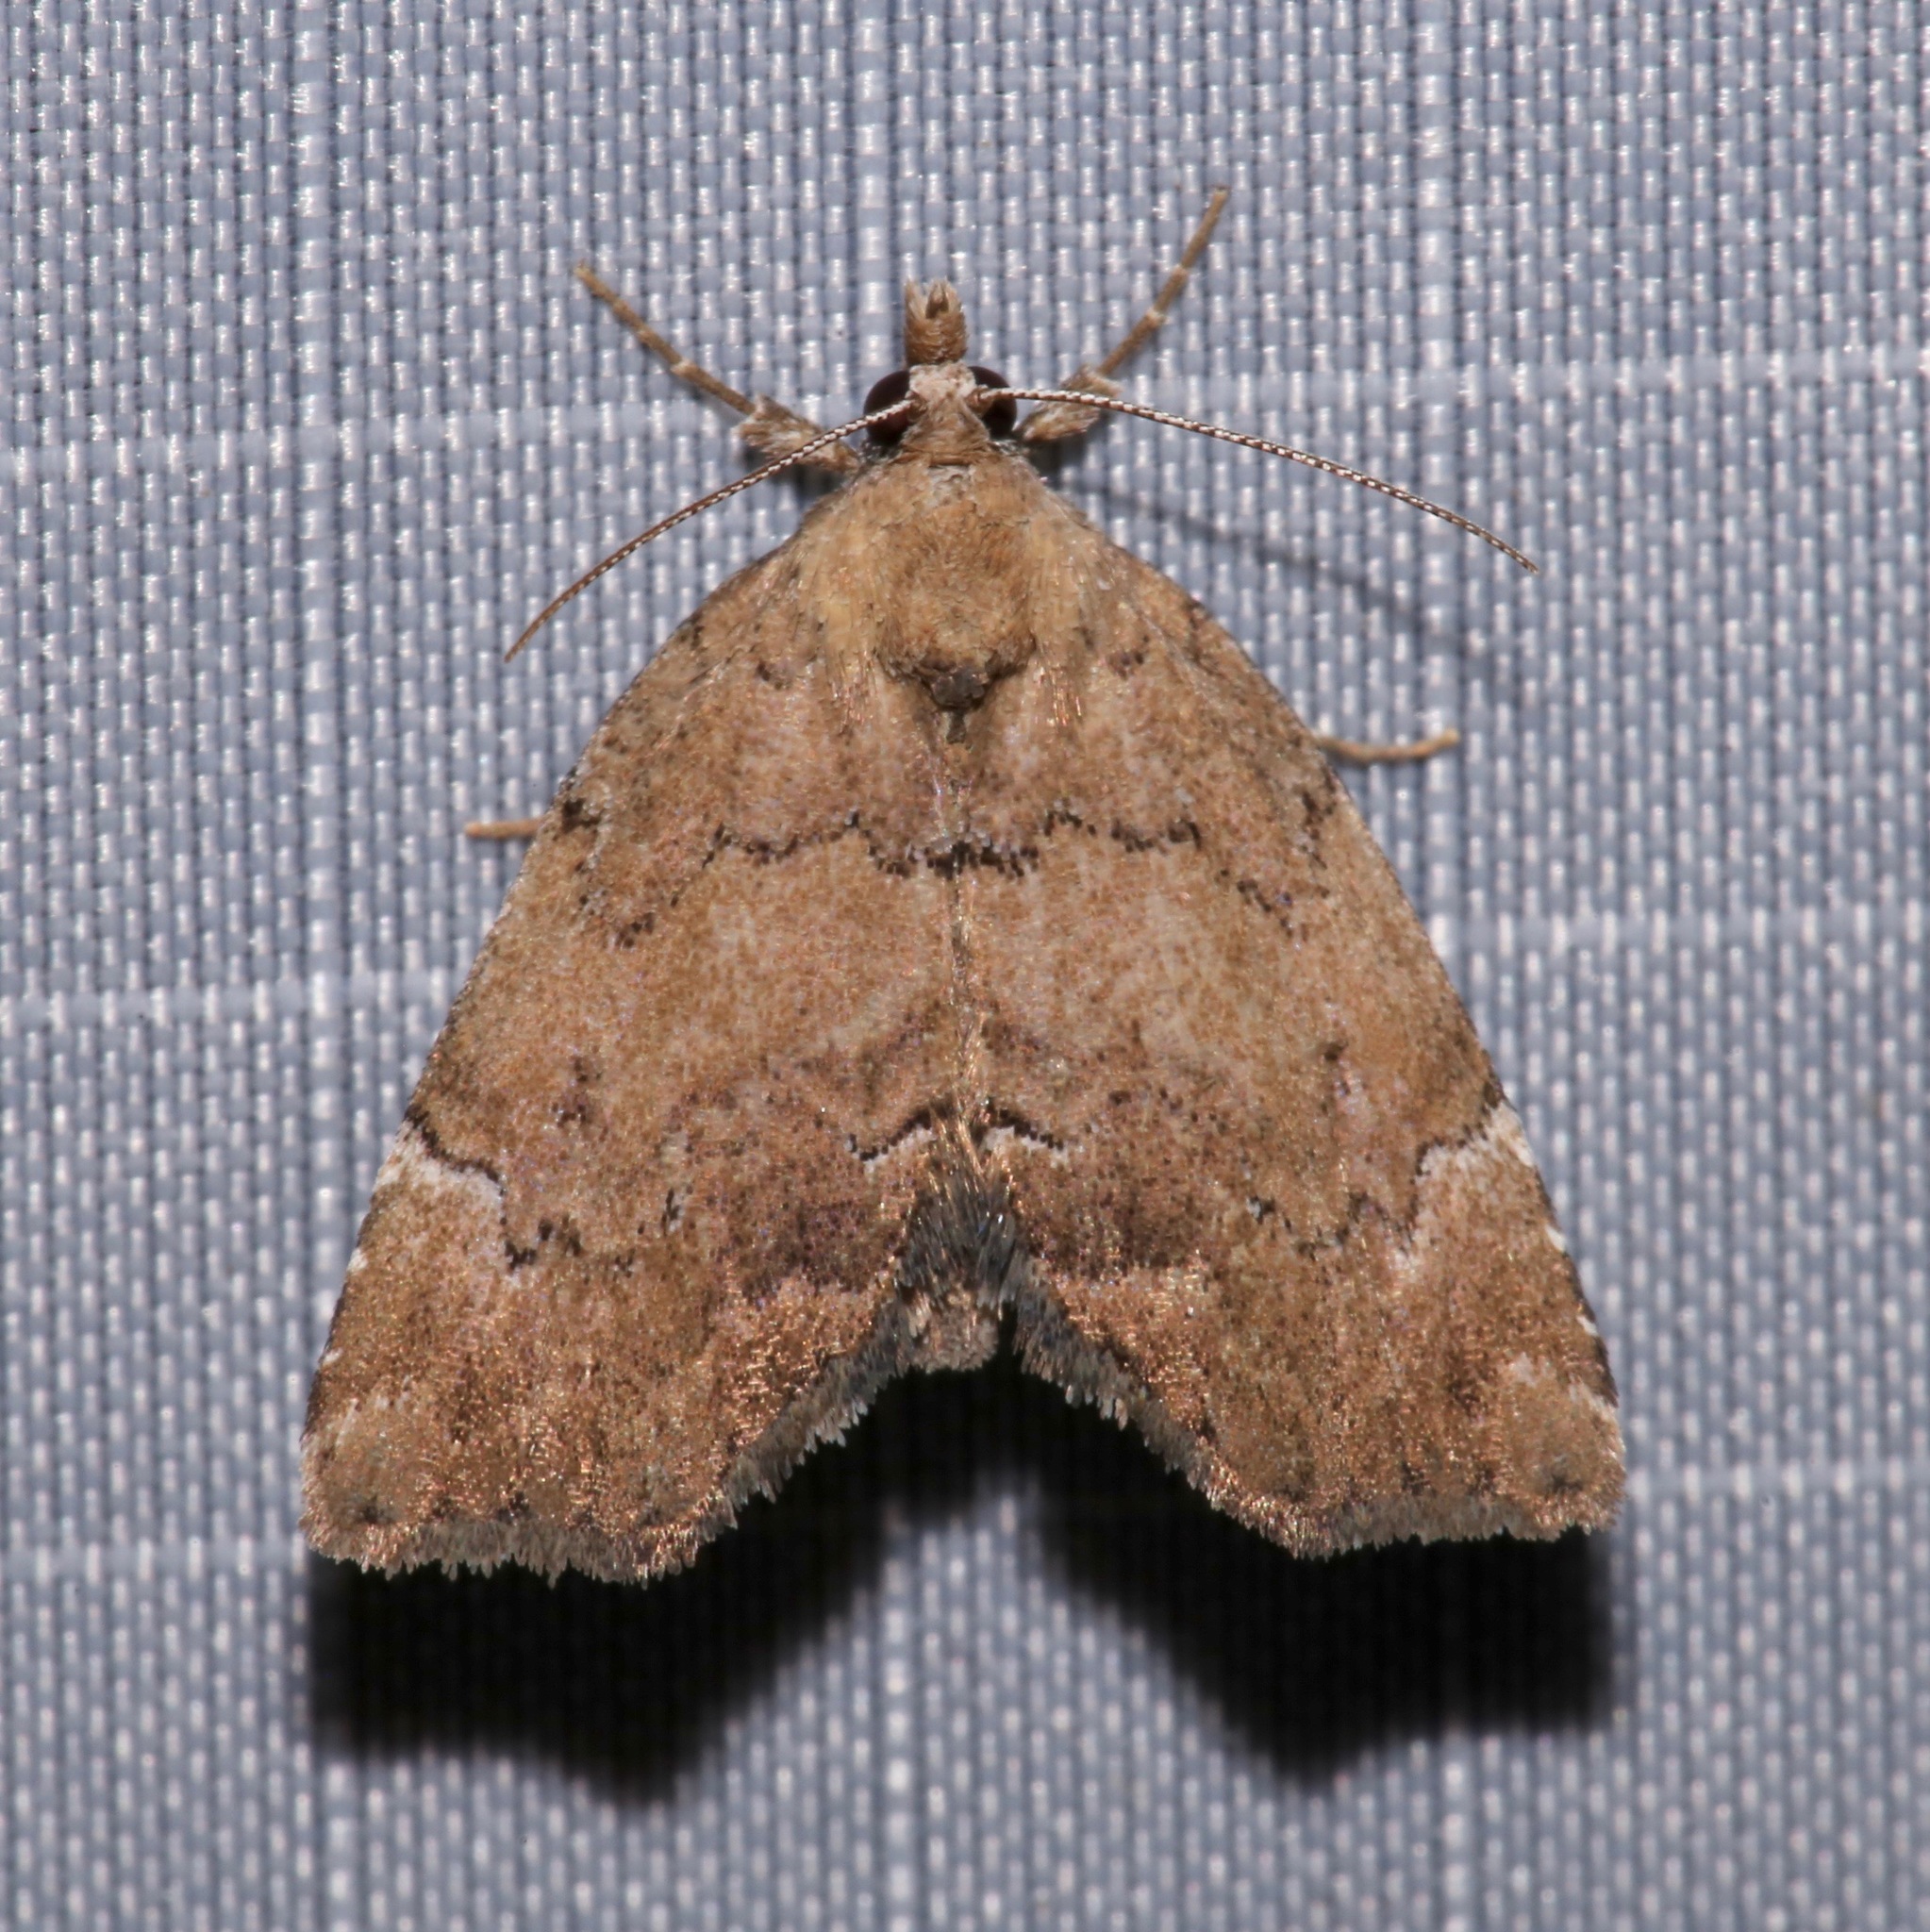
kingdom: Animalia
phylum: Arthropoda
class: Insecta
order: Lepidoptera
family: Erebidae
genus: Cutina
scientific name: Cutina aluticolor
